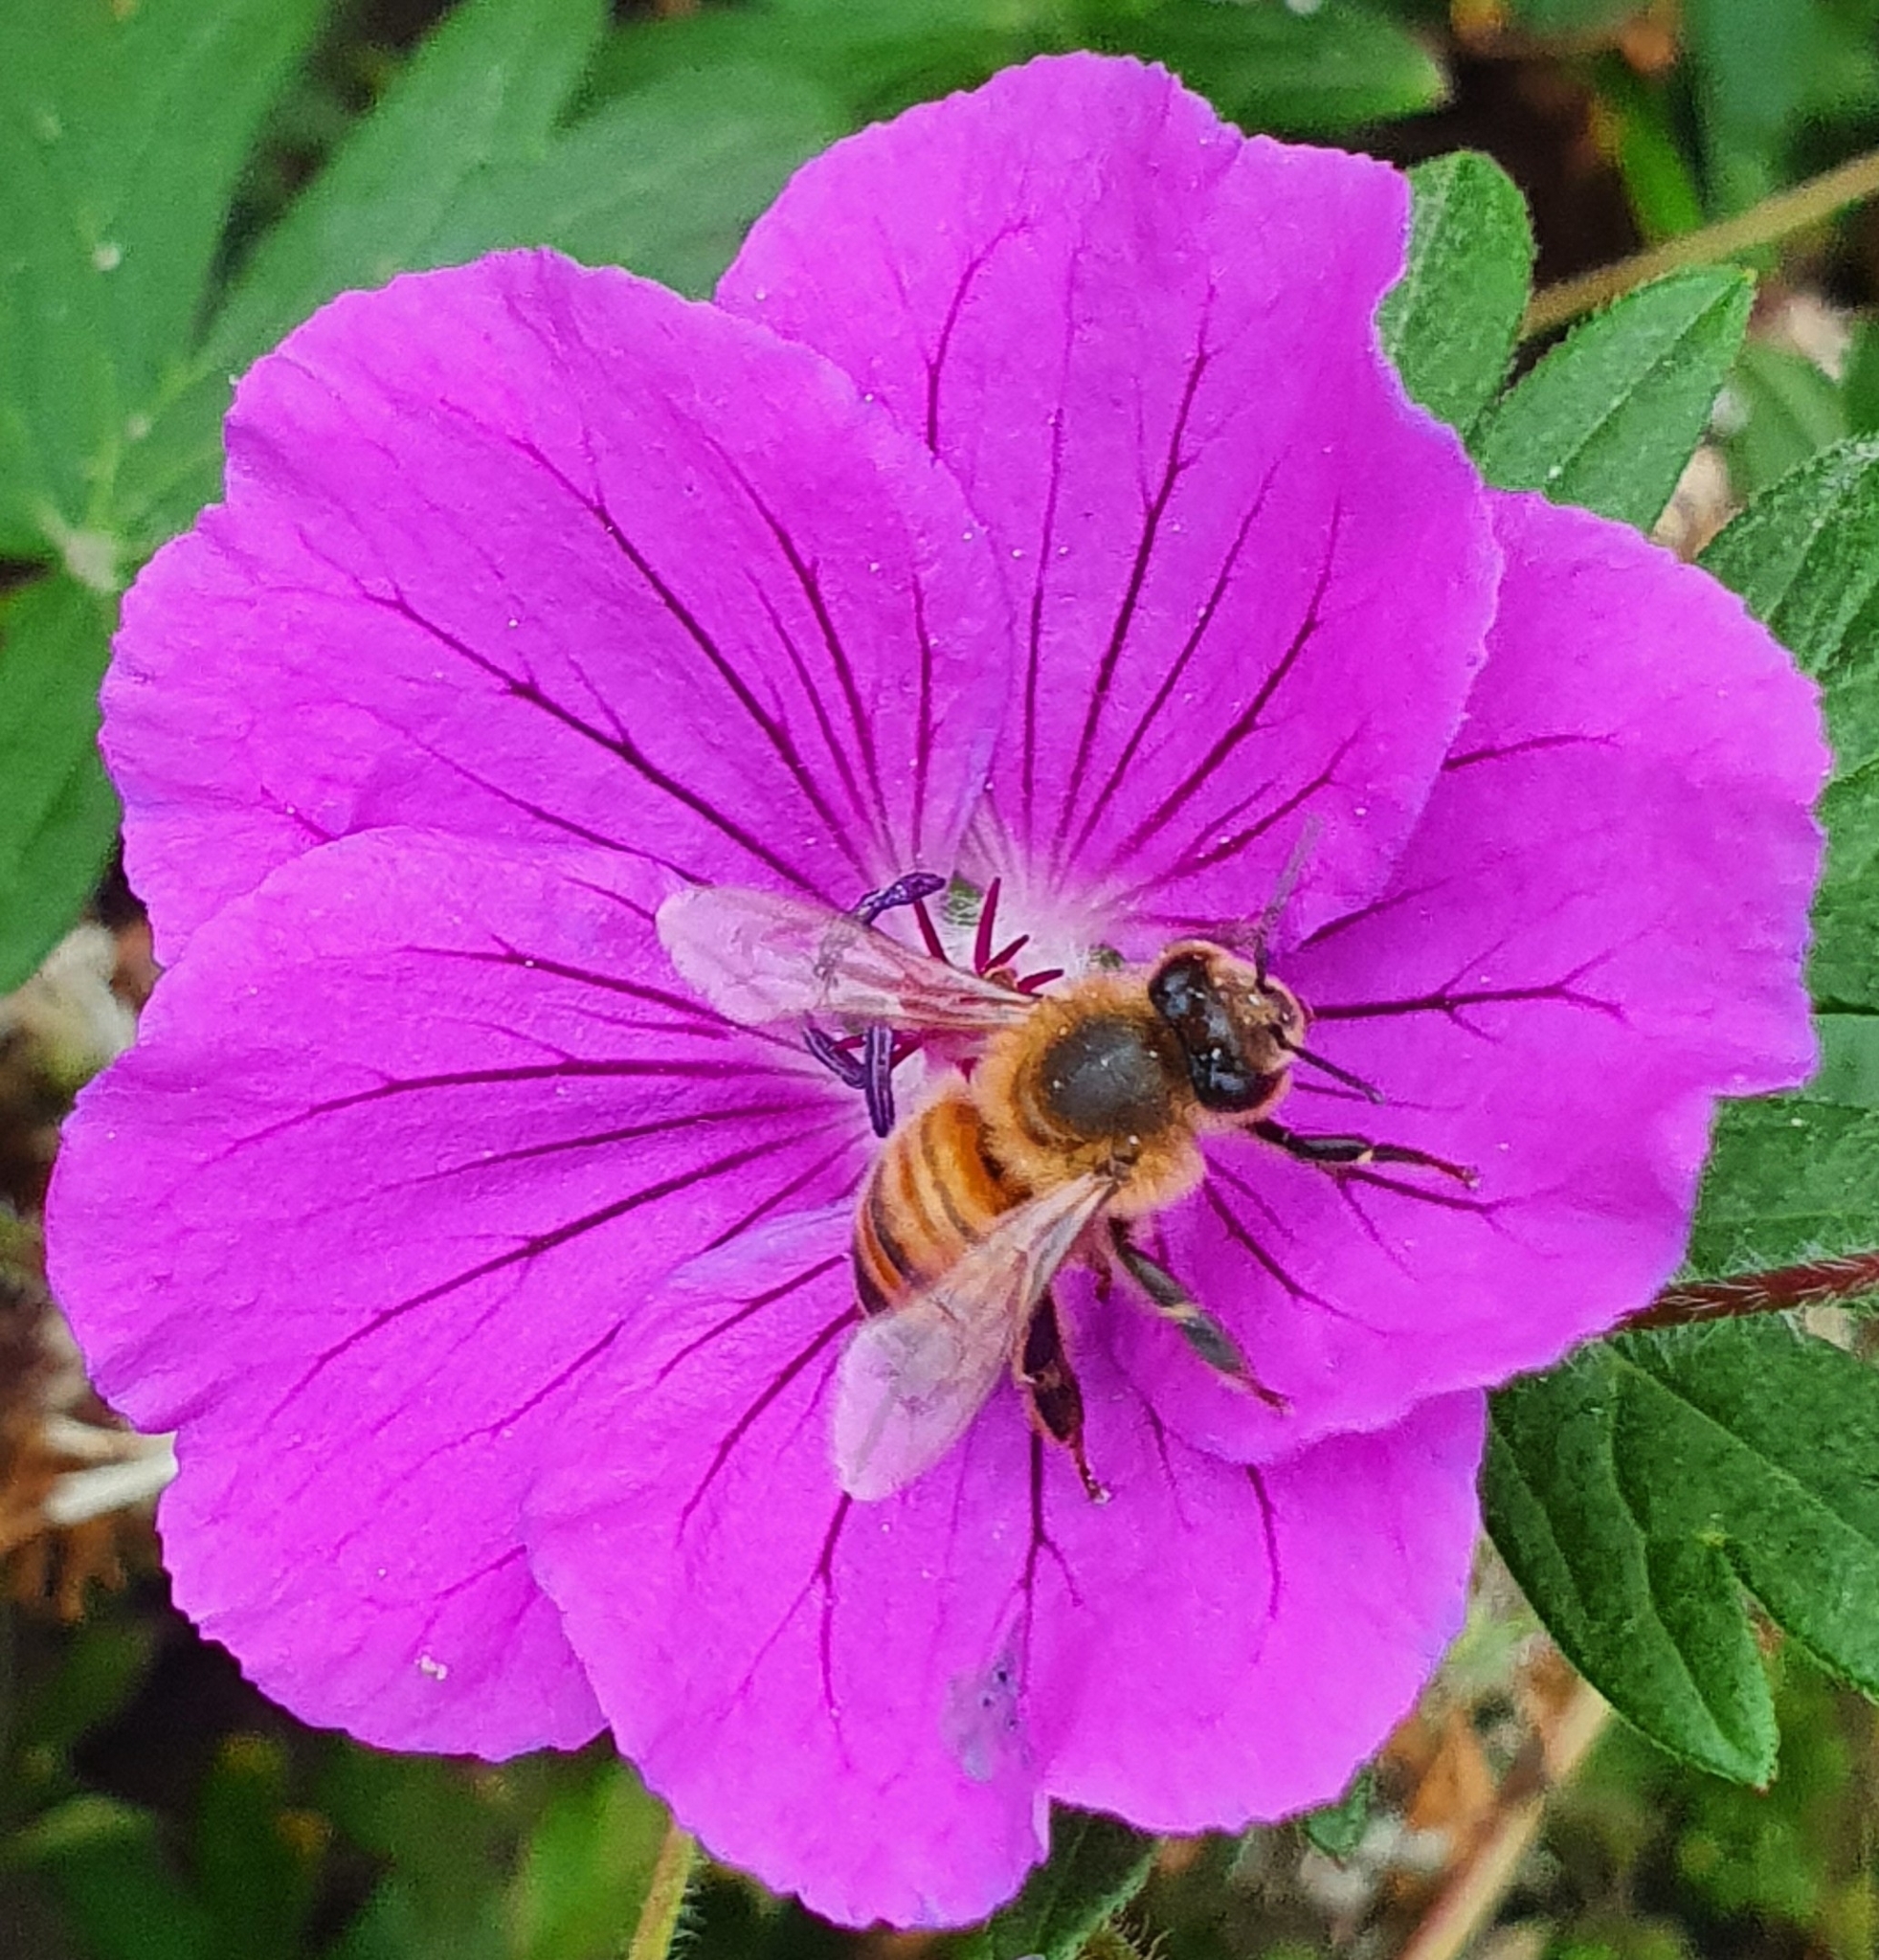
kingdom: Animalia
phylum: Arthropoda
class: Insecta
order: Hymenoptera
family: Apidae
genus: Apis
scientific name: Apis mellifera
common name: Honey bee
